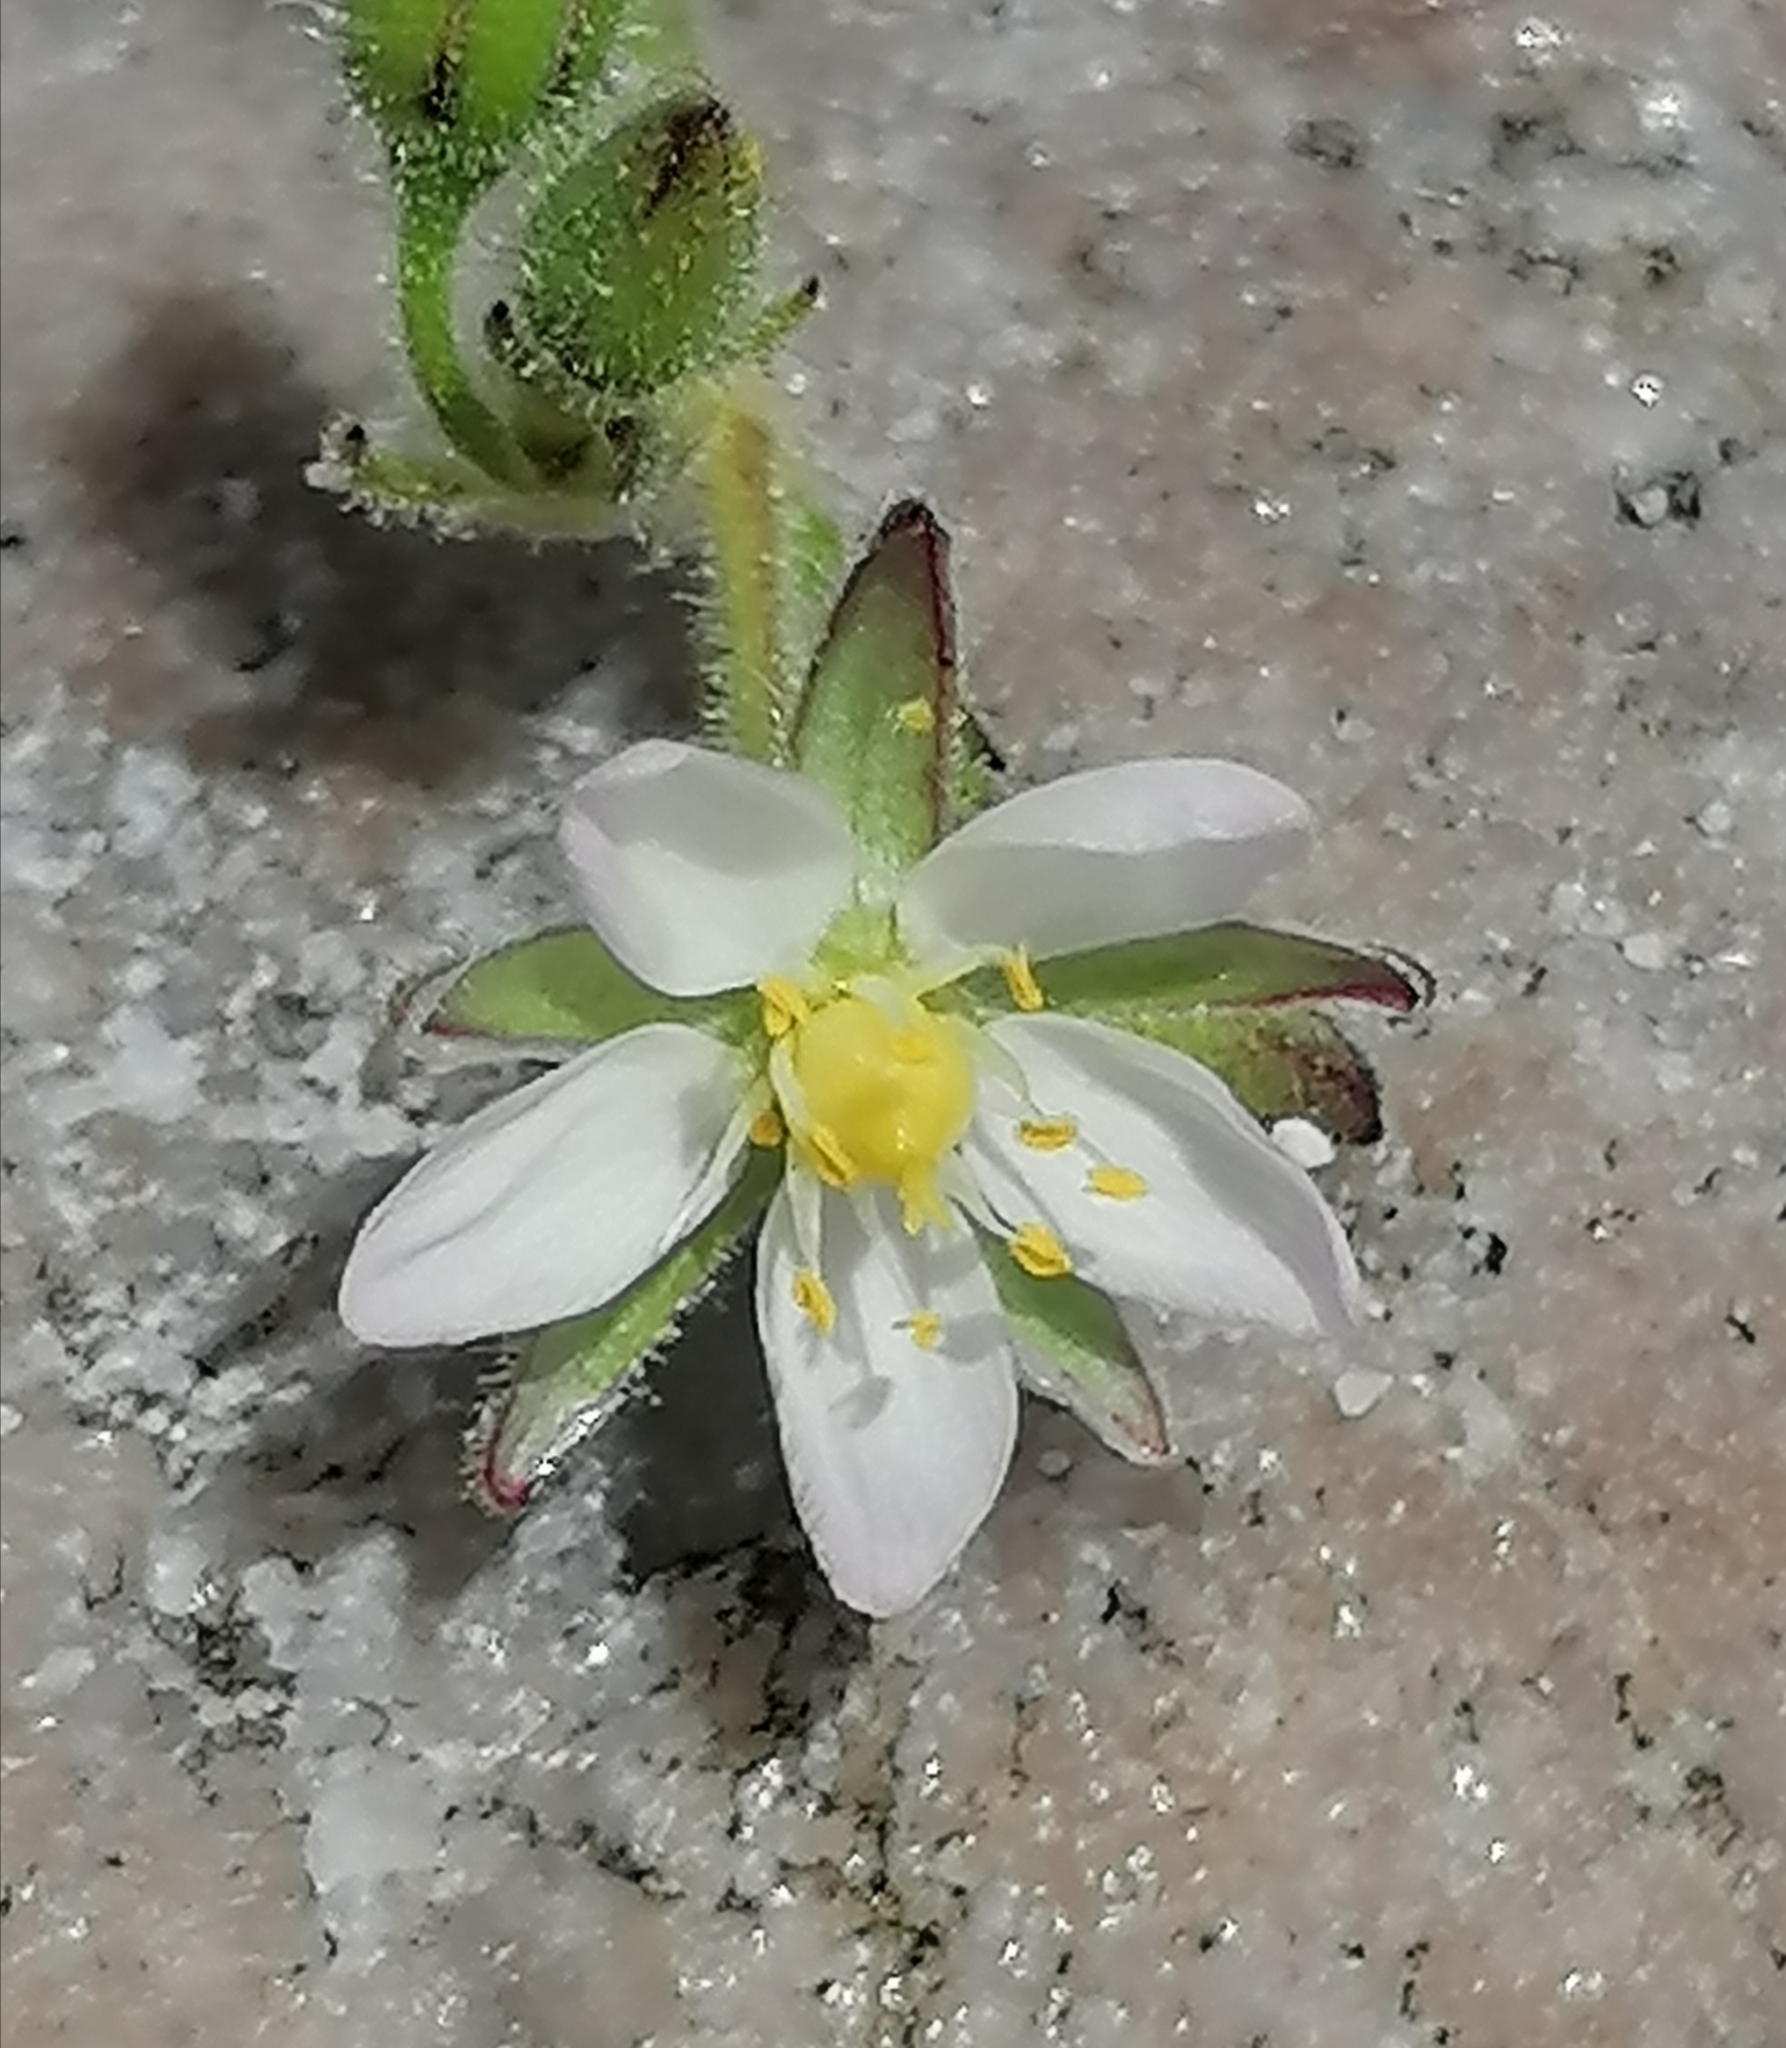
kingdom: Plantae
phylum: Tracheophyta
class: Magnoliopsida
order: Caryophyllales
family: Caryophyllaceae
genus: Spergularia
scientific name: Spergularia media
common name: Greater sea-spurrey
